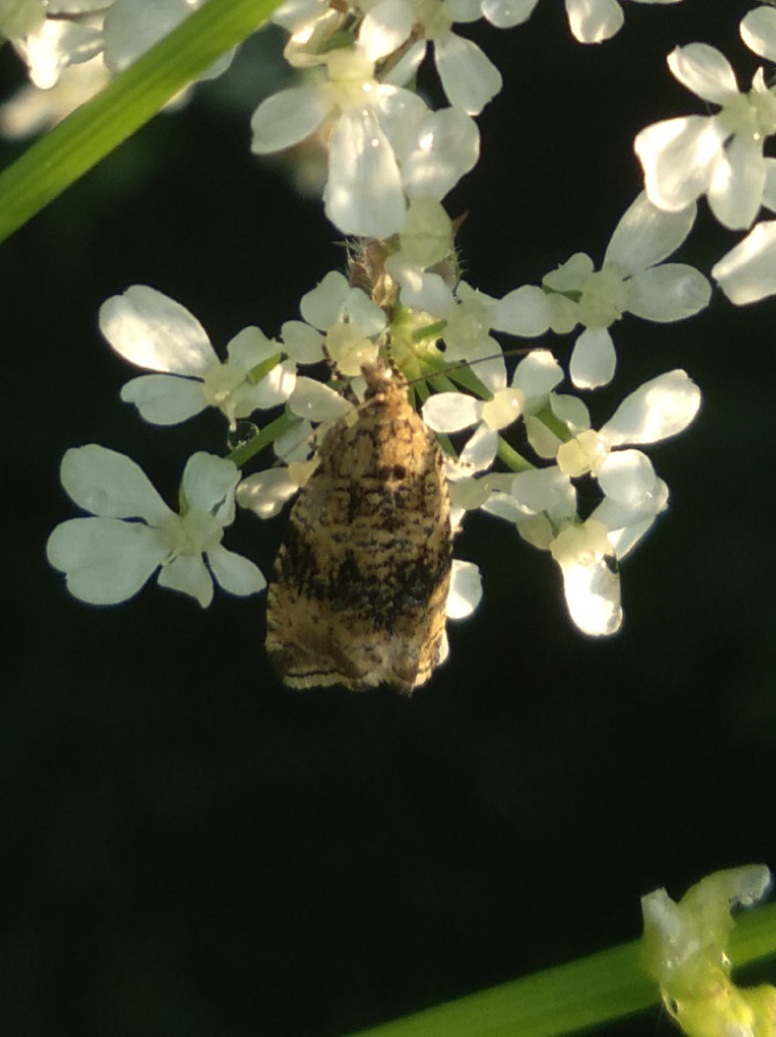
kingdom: Animalia
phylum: Arthropoda
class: Insecta
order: Lepidoptera
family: Tortricidae
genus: Syricoris
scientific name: Syricoris lacunana
